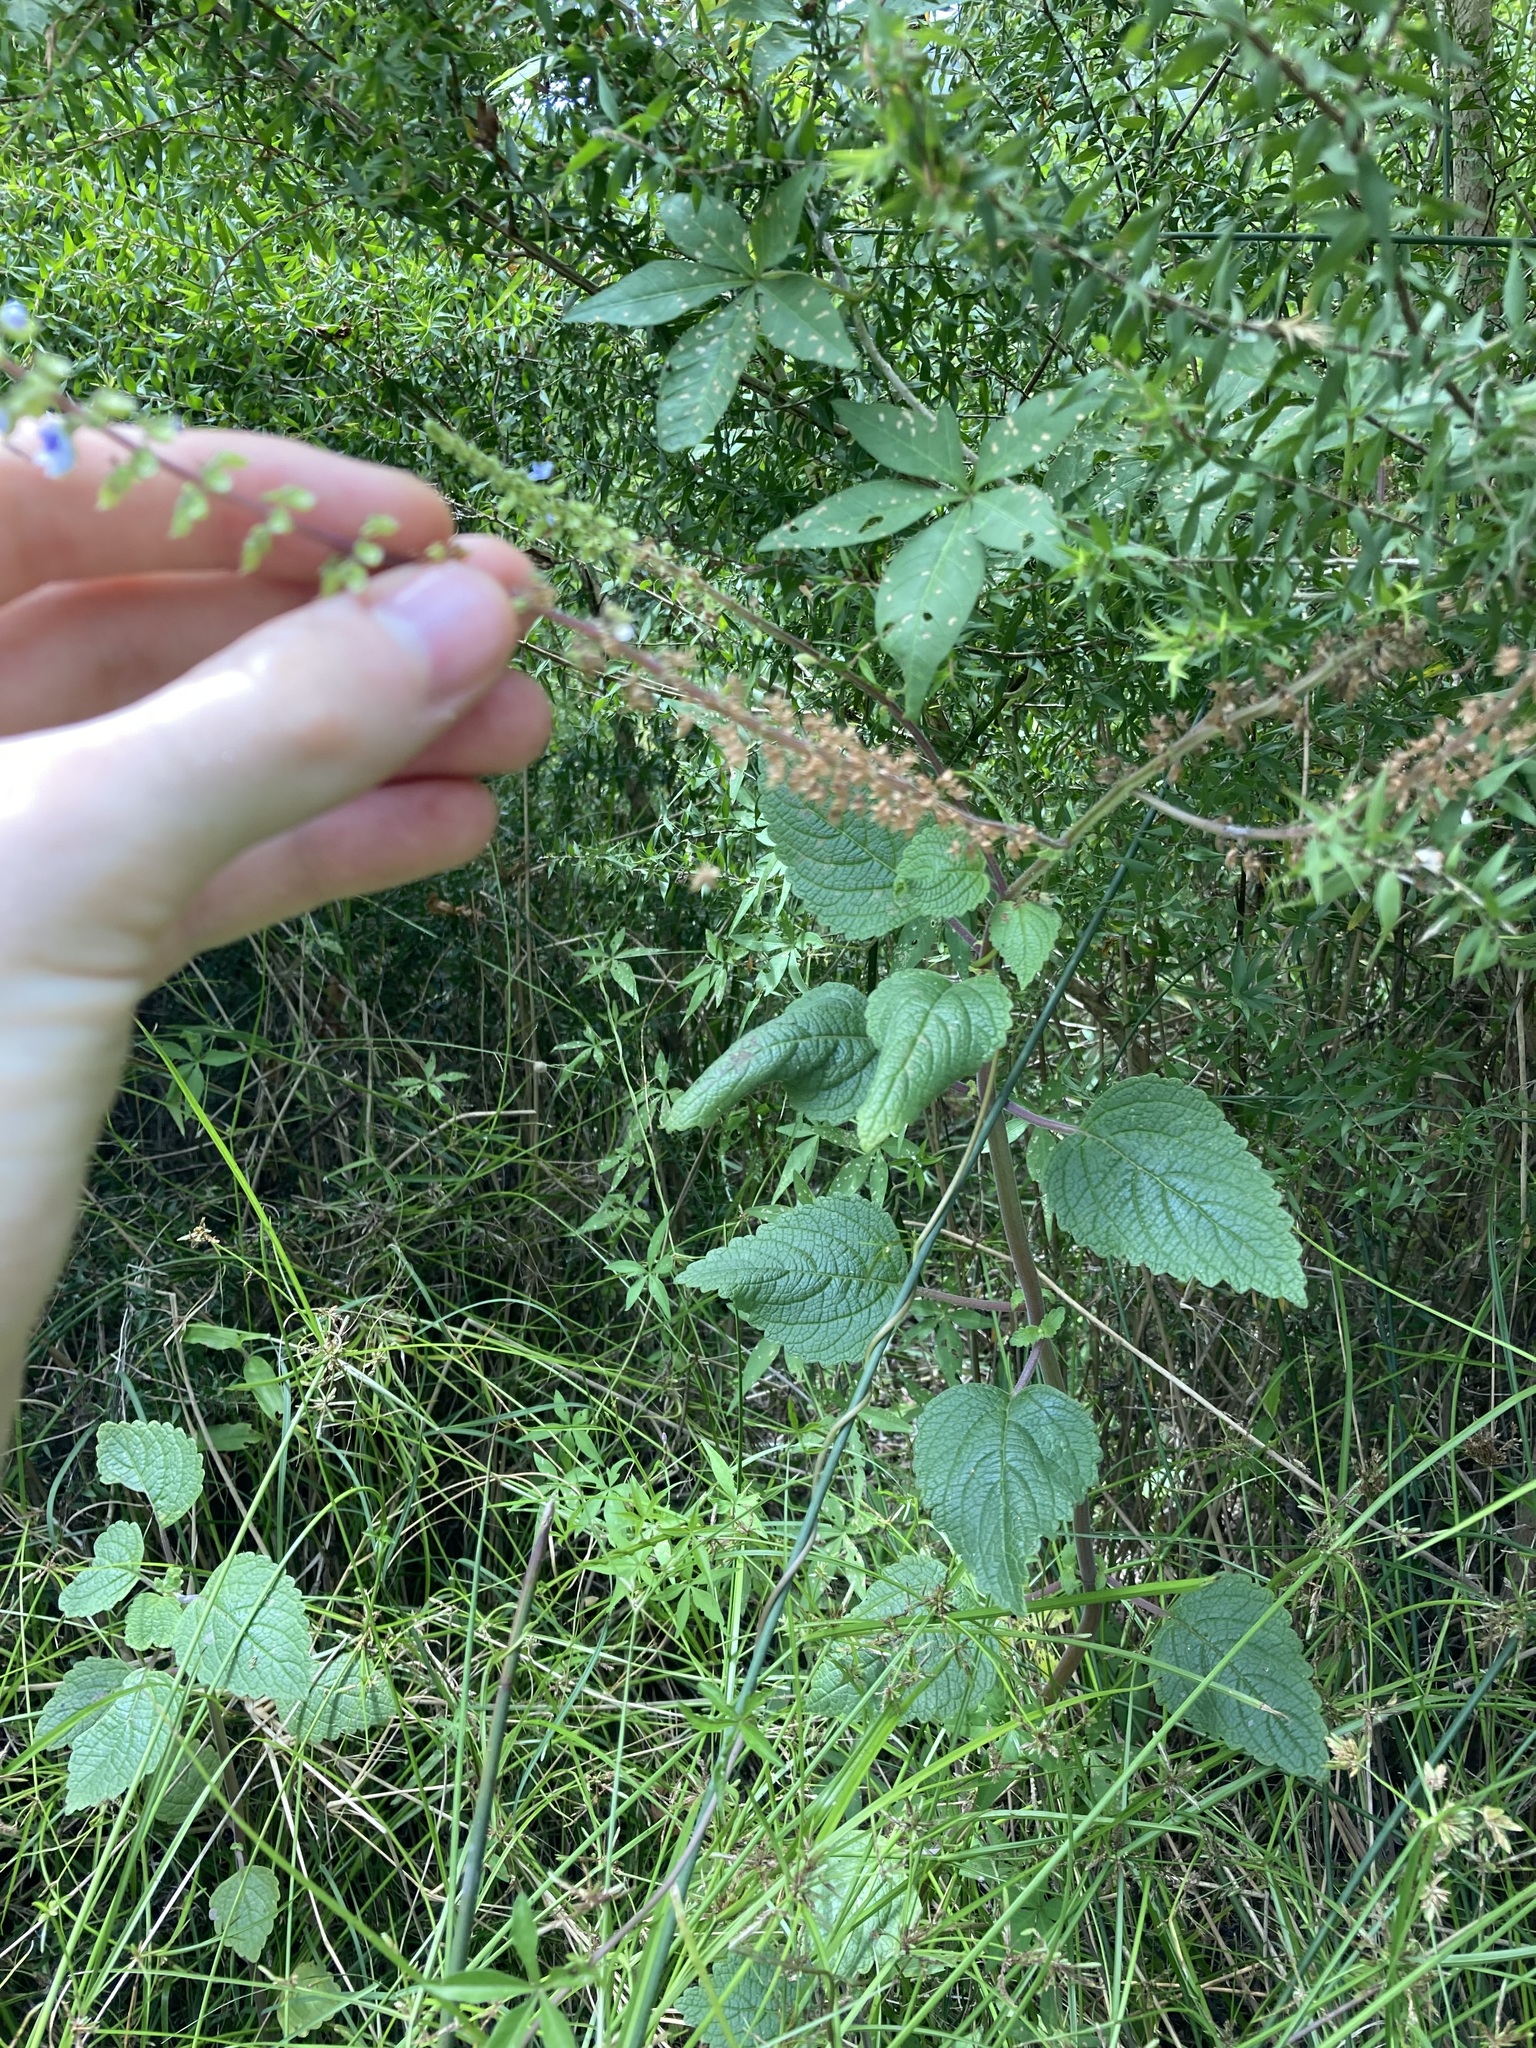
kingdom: Plantae
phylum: Tracheophyta
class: Magnoliopsida
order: Lamiales
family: Lamiaceae
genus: Coleus
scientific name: Coleus australis
